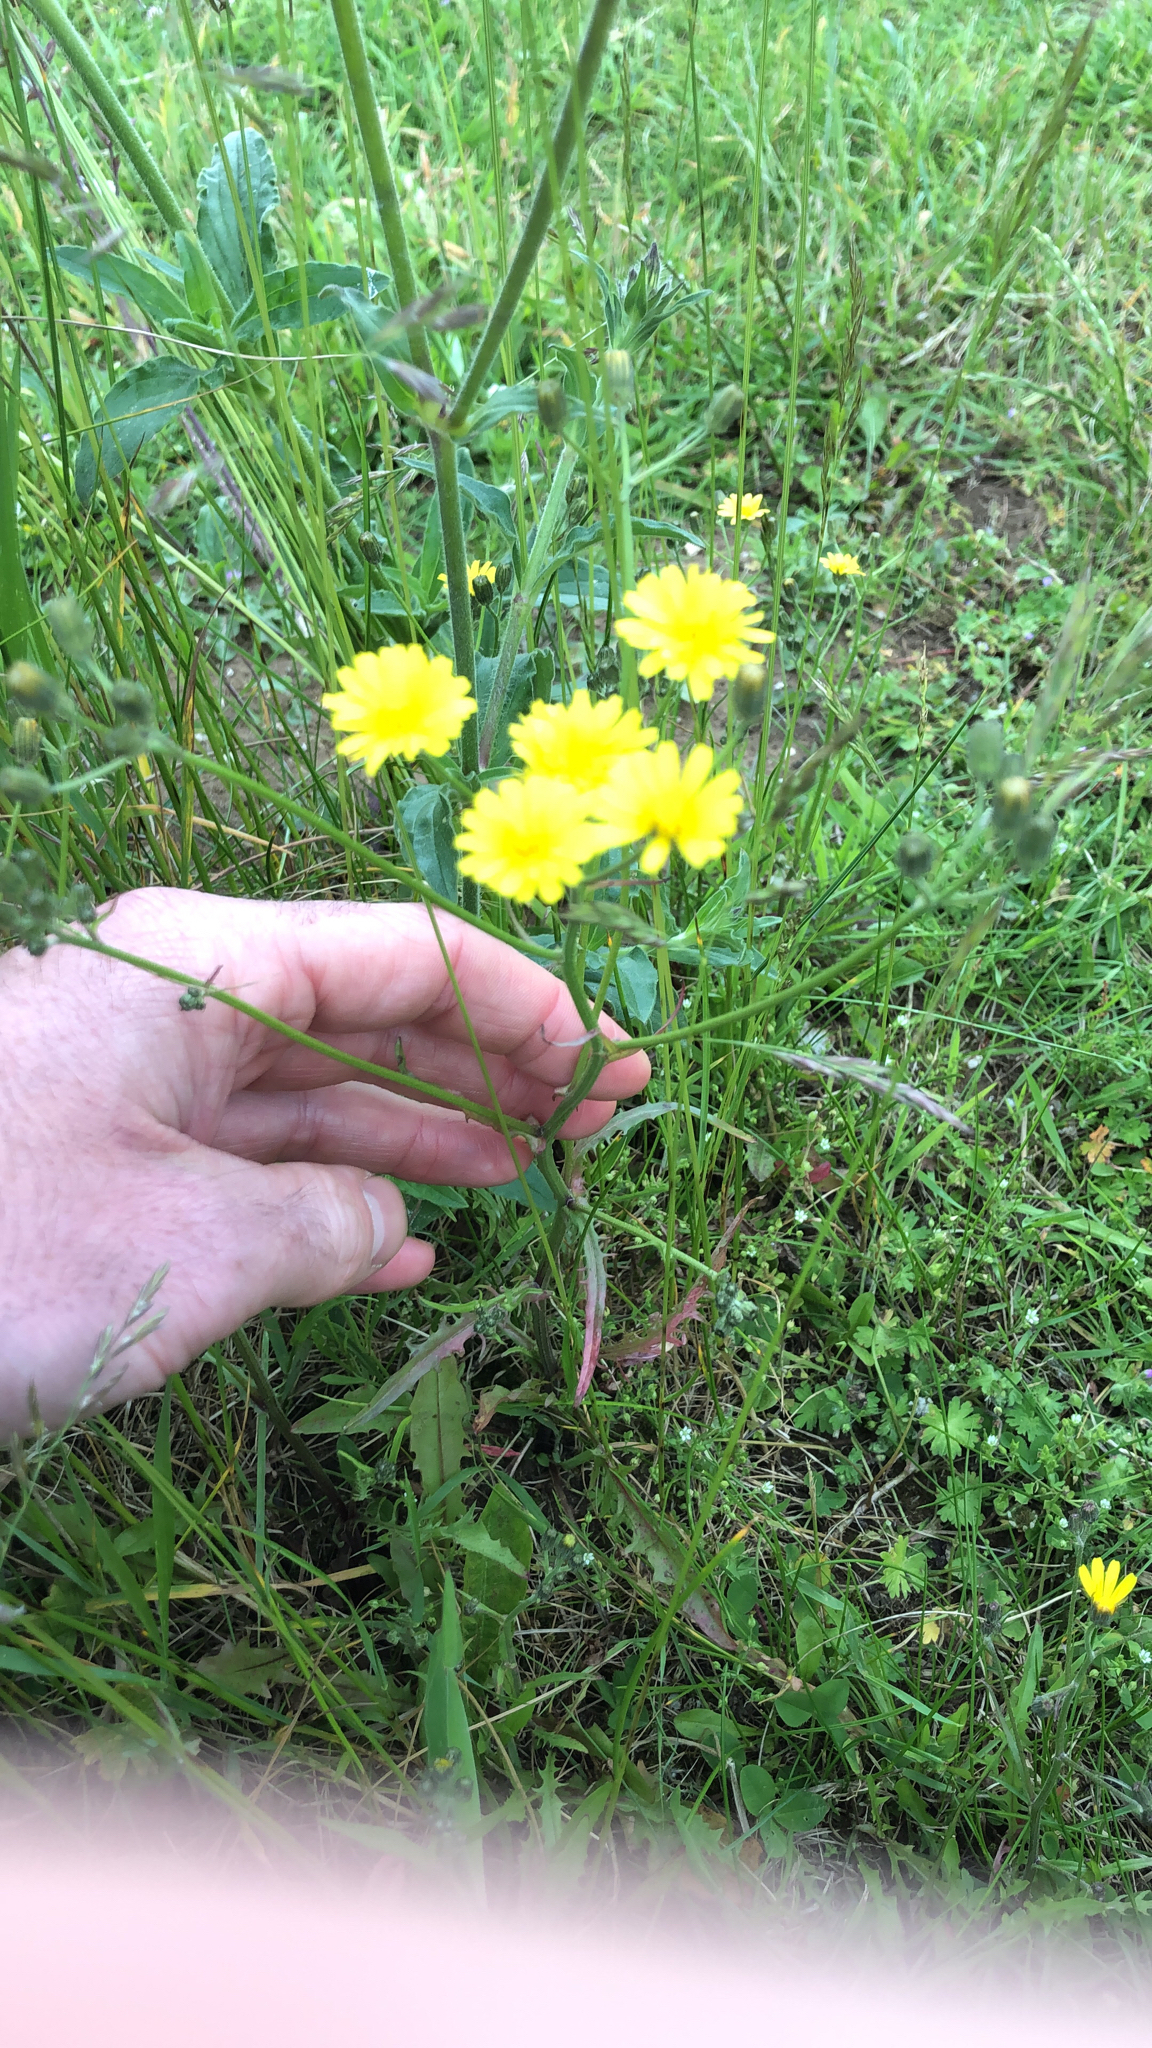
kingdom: Plantae
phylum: Tracheophyta
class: Magnoliopsida
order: Asterales
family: Asteraceae
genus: Crepis
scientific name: Crepis capillaris
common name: Smooth hawksbeard
